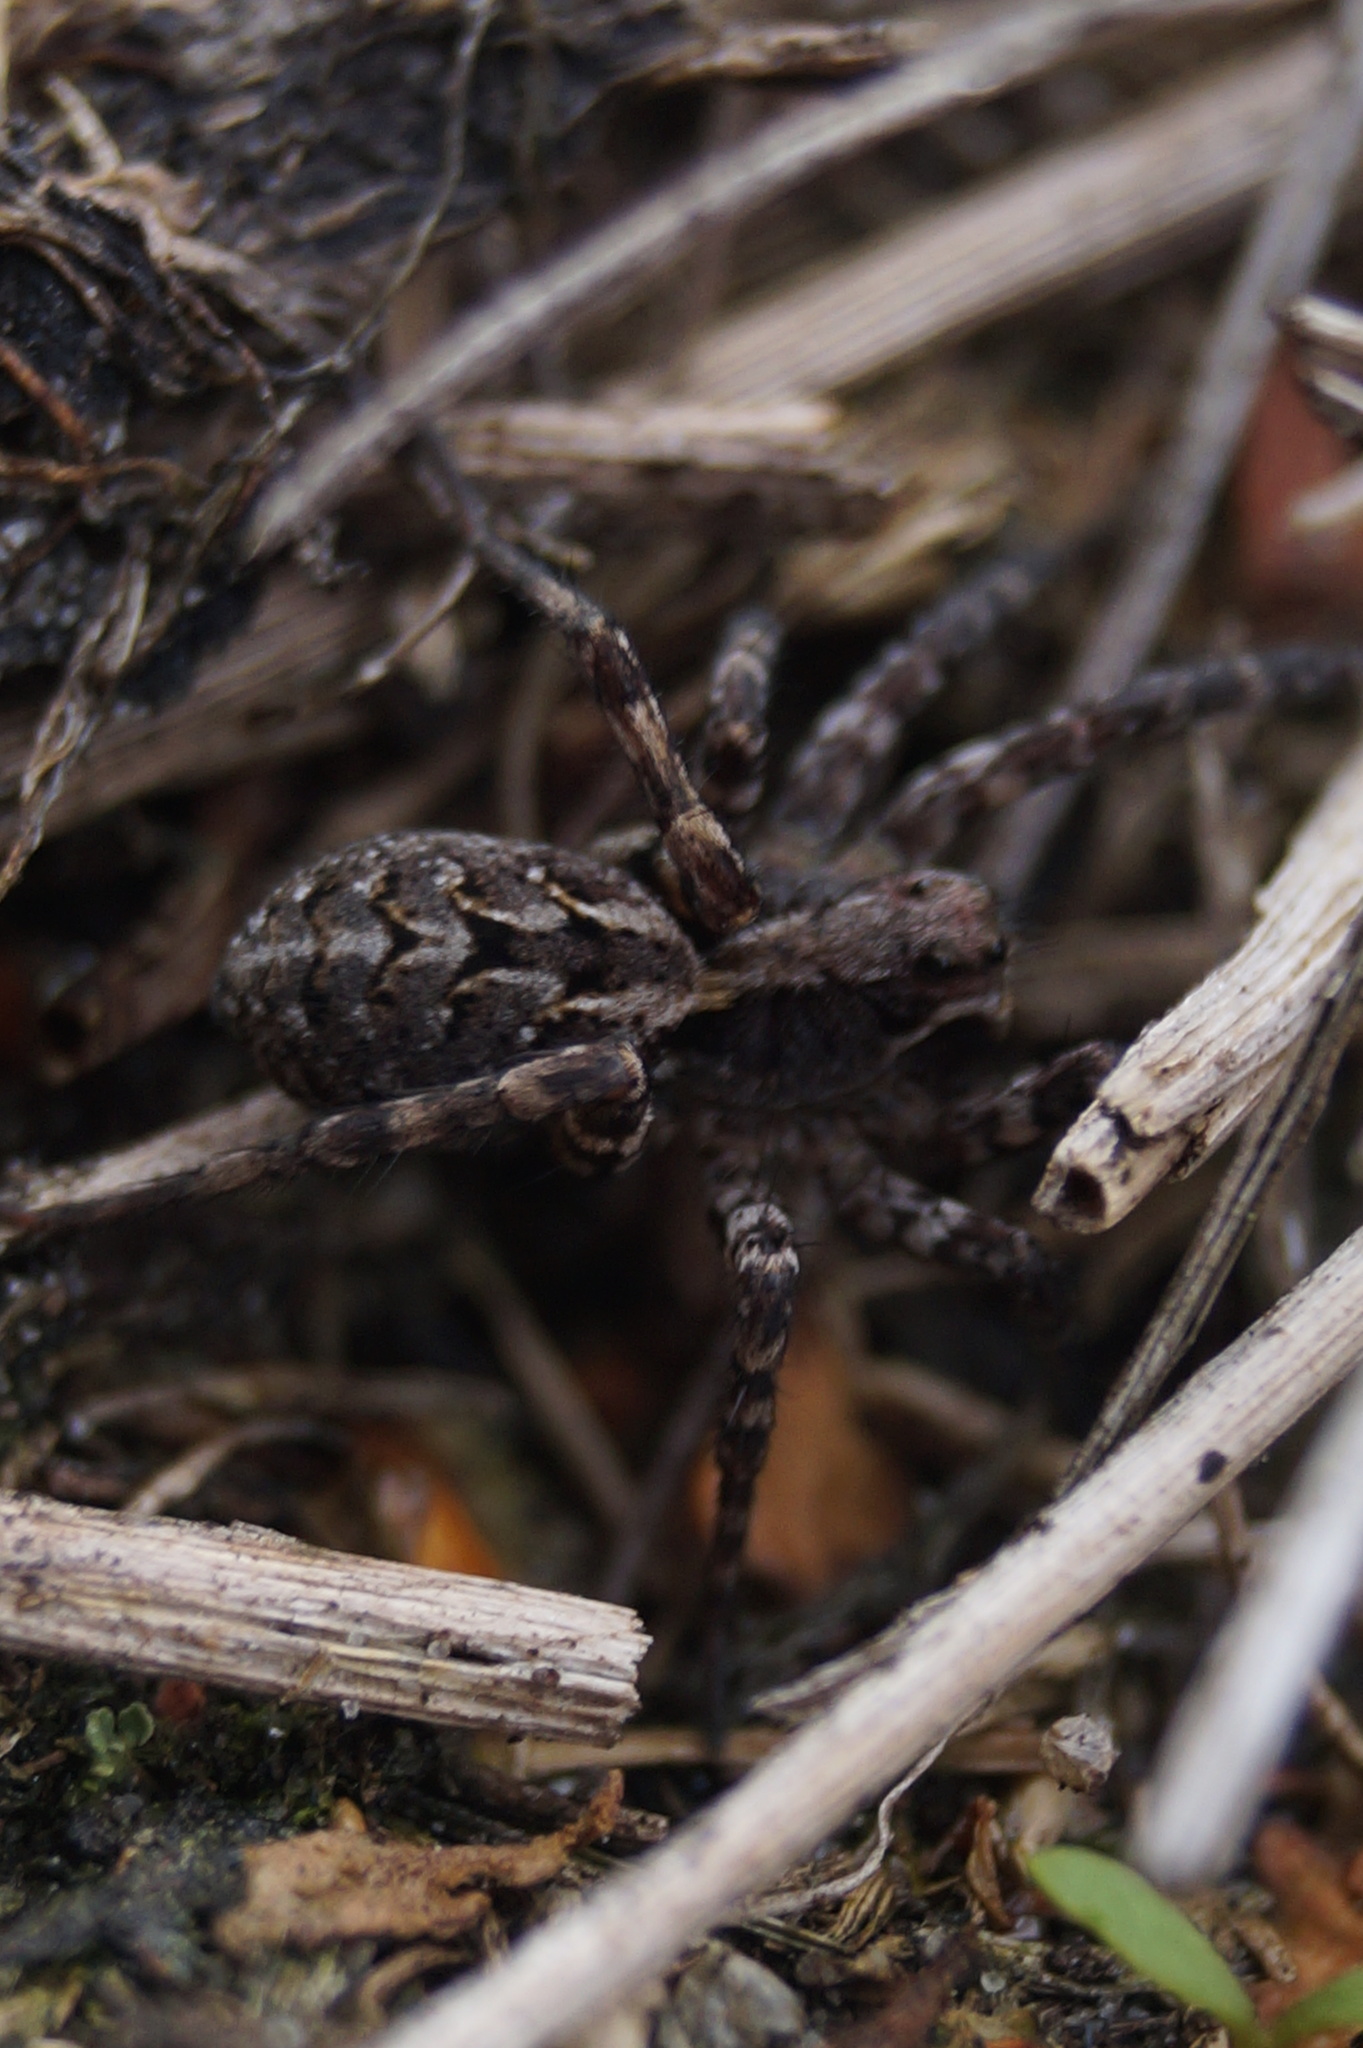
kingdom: Animalia
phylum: Arthropoda
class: Arachnida
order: Araneae
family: Lycosidae
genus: Alopecosa
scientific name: Alopecosa barbipes
